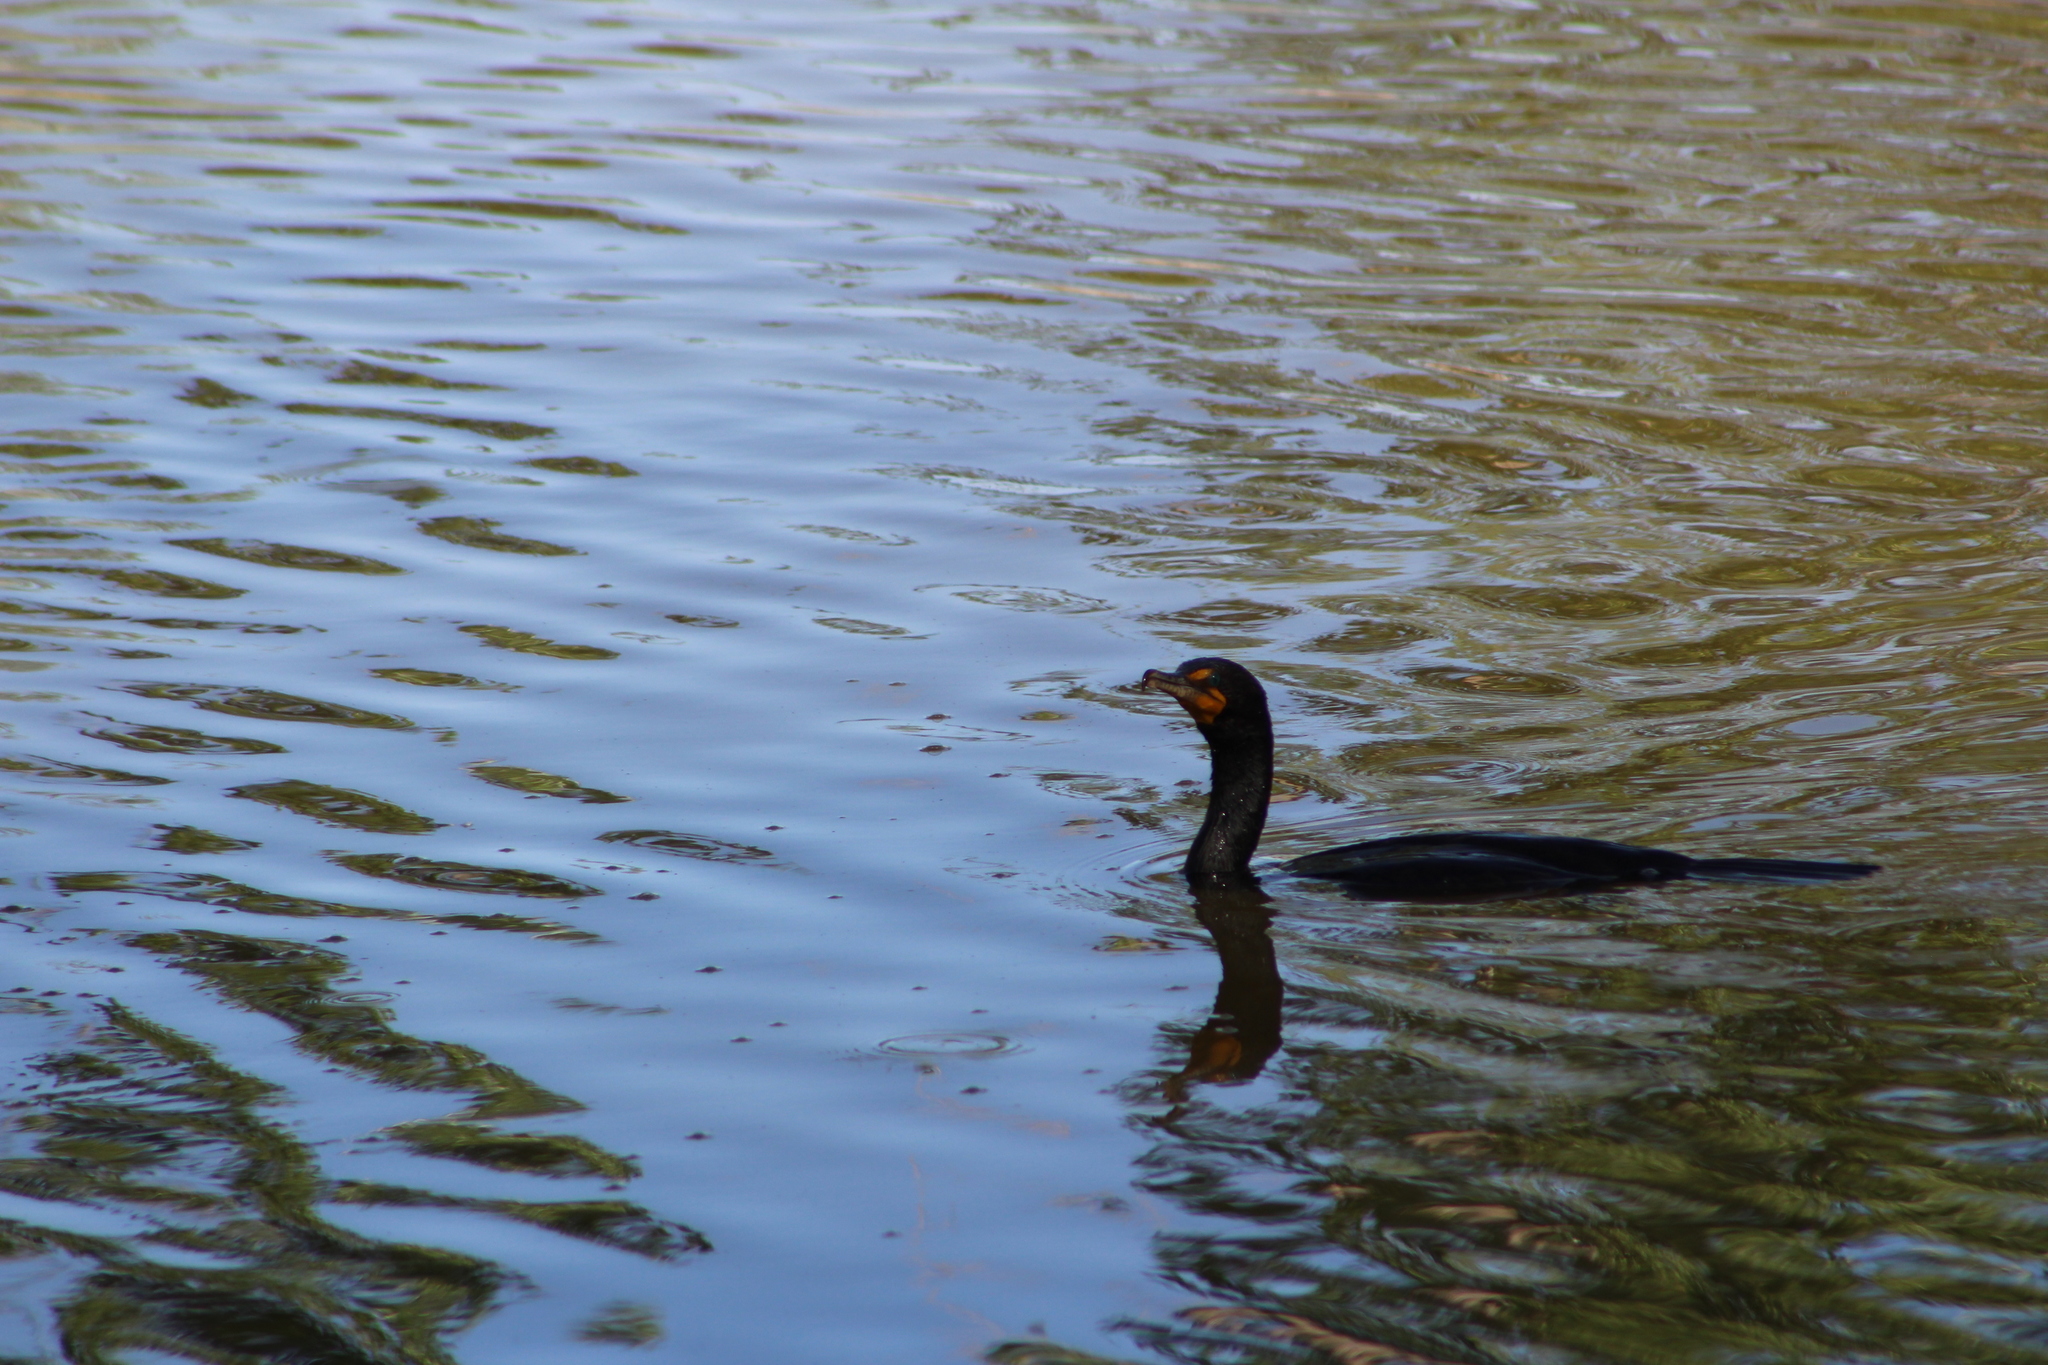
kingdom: Animalia
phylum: Chordata
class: Aves
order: Suliformes
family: Phalacrocoracidae
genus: Phalacrocorax
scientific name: Phalacrocorax auritus
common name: Double-crested cormorant
